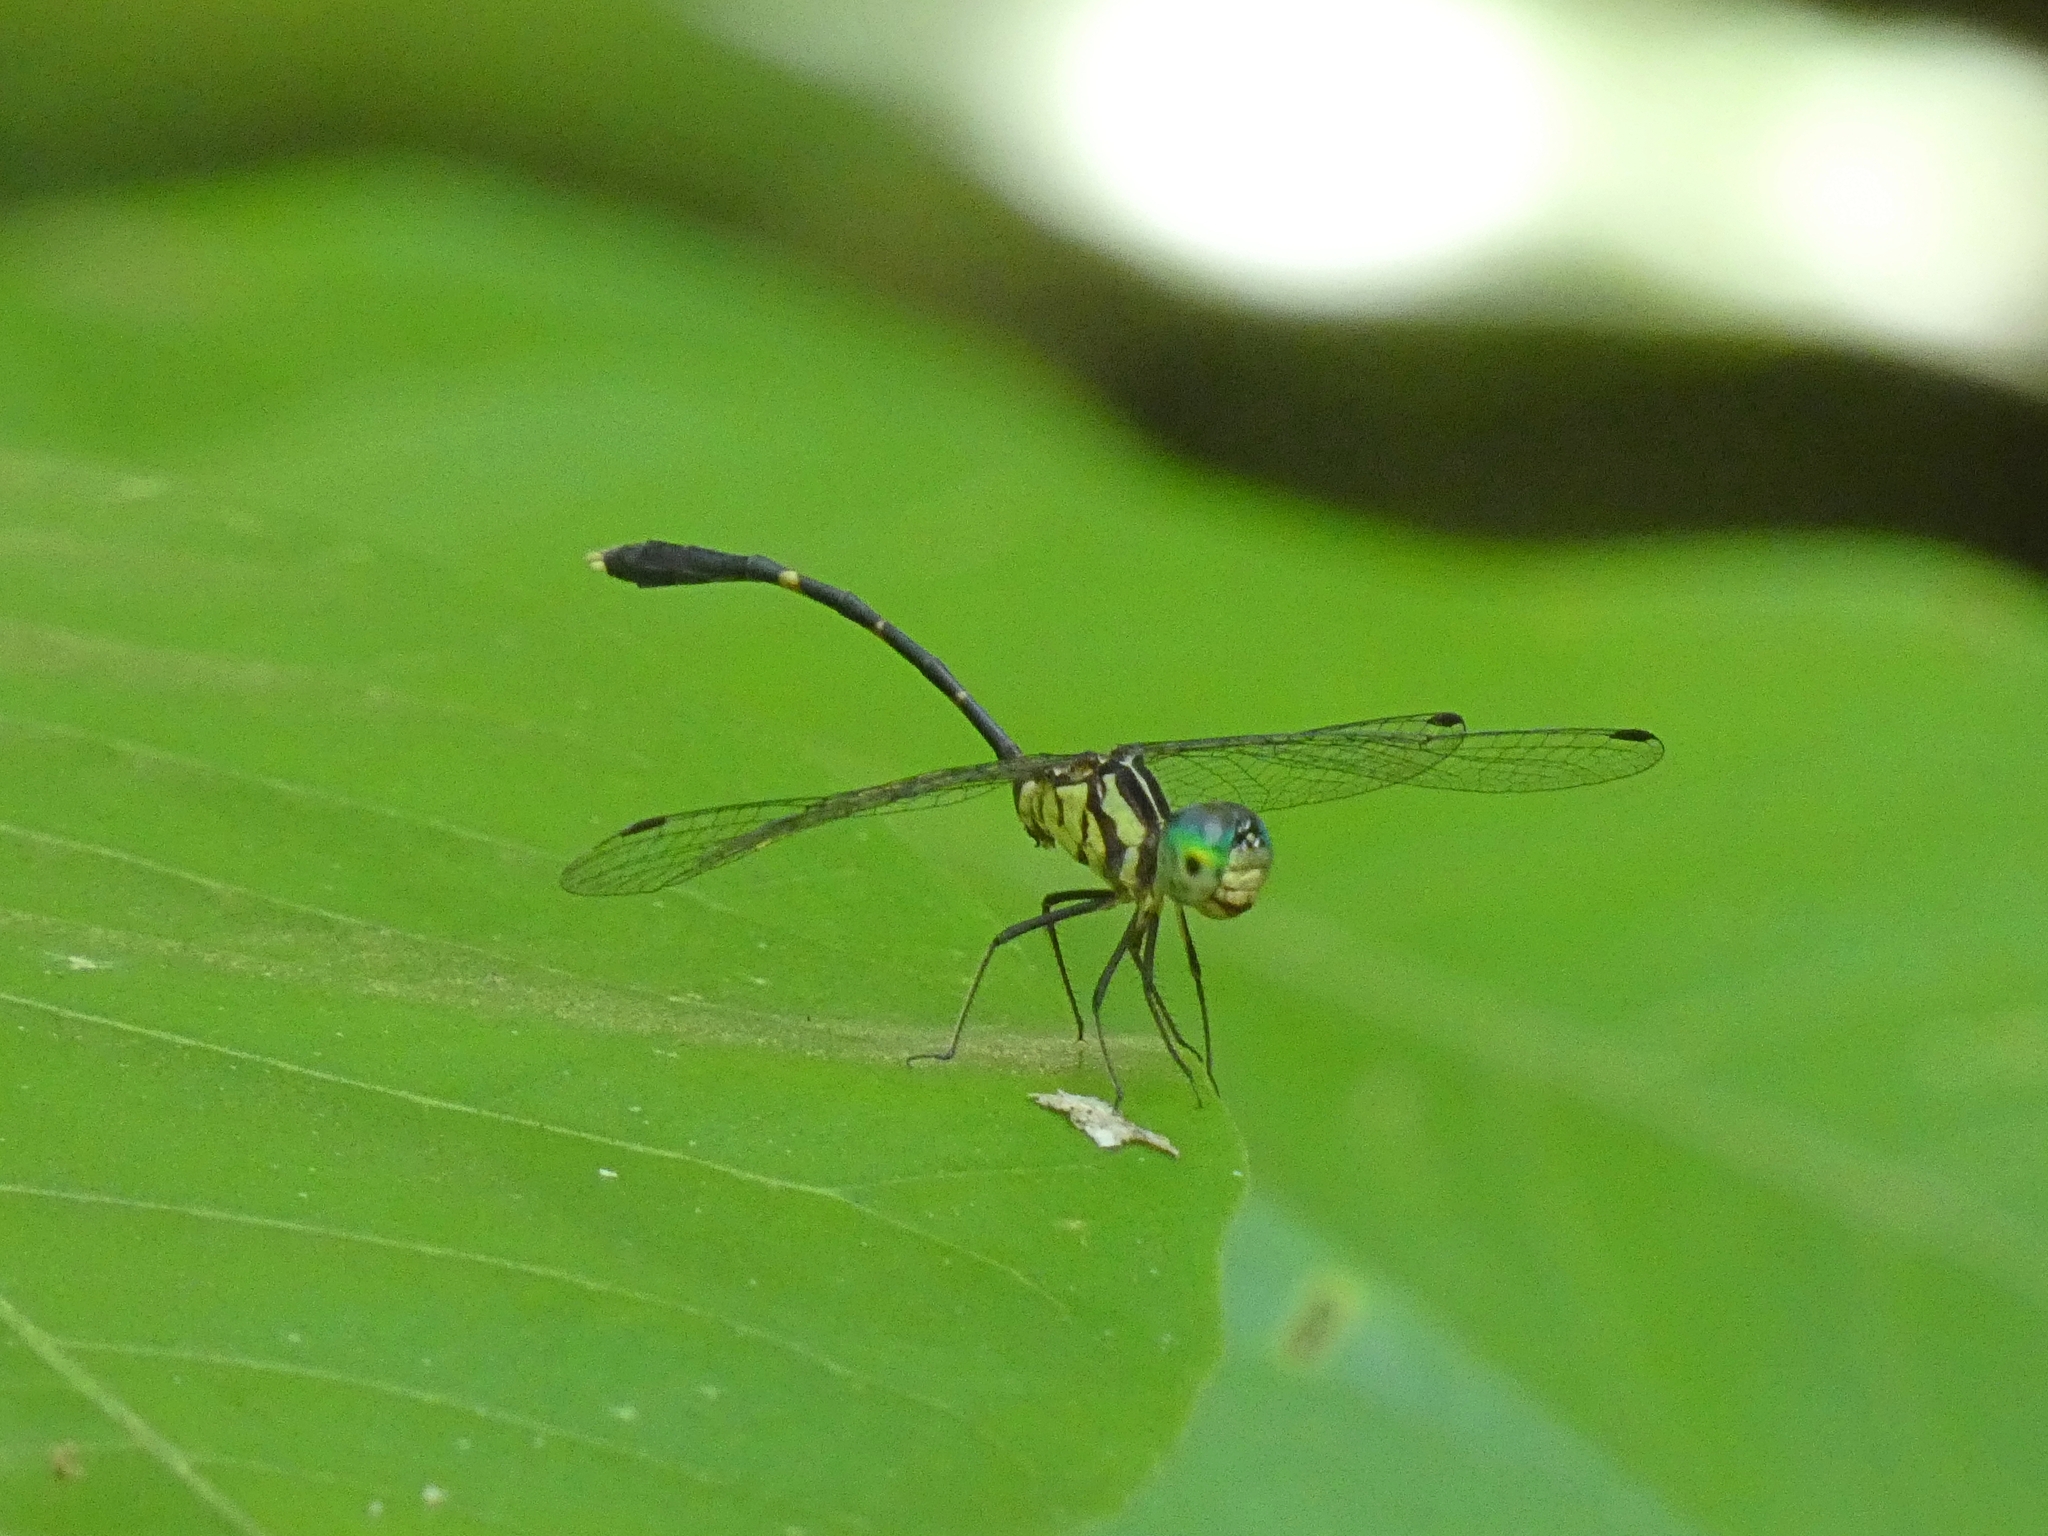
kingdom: Animalia
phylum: Arthropoda
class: Insecta
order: Odonata
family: Libellulidae
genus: Nannophlebia
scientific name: Nannophlebia eludens
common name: Elusive archtail
